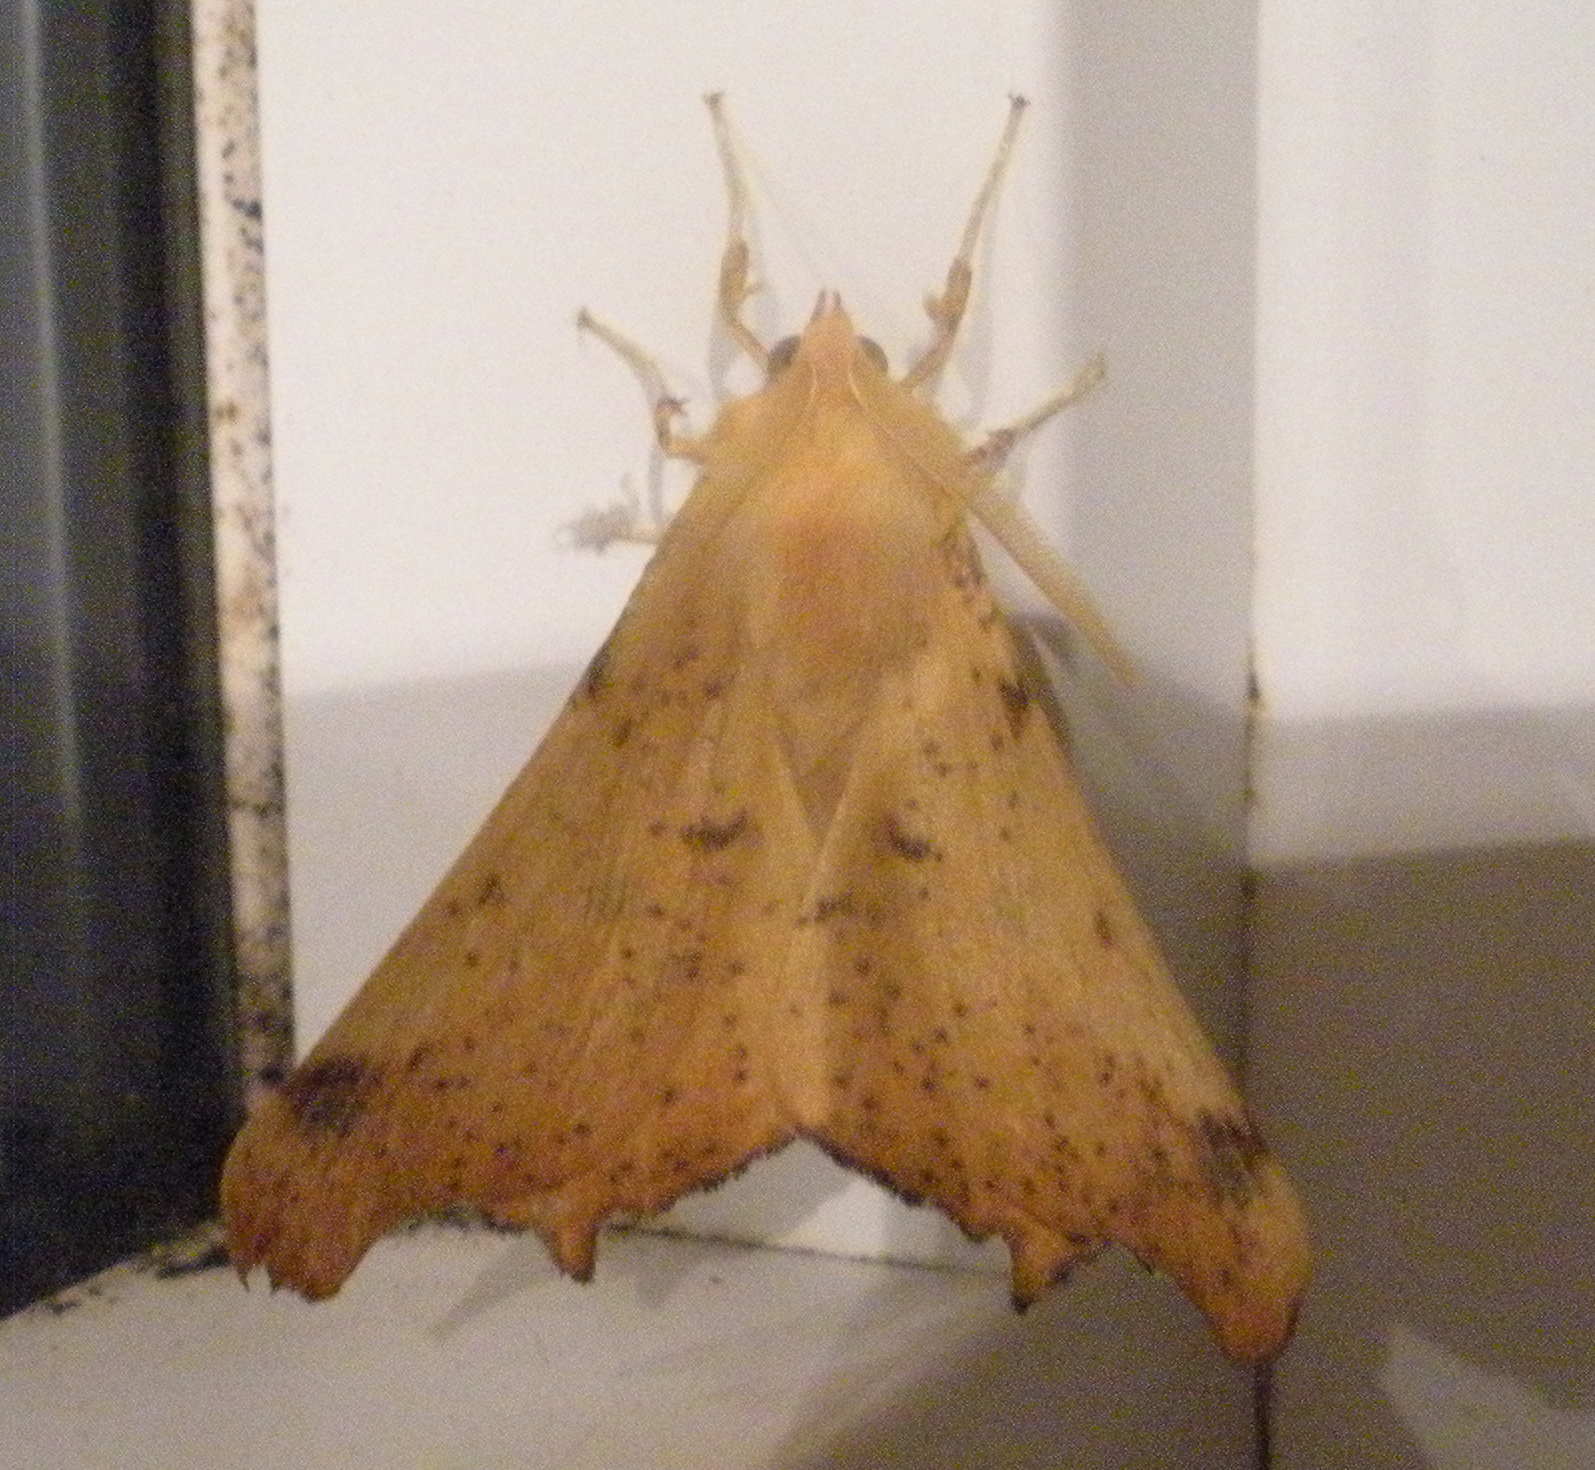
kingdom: Animalia
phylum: Arthropoda
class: Insecta
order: Lepidoptera
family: Geometridae
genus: Ennomos
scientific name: Ennomos magnaria
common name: Maple spanworm
